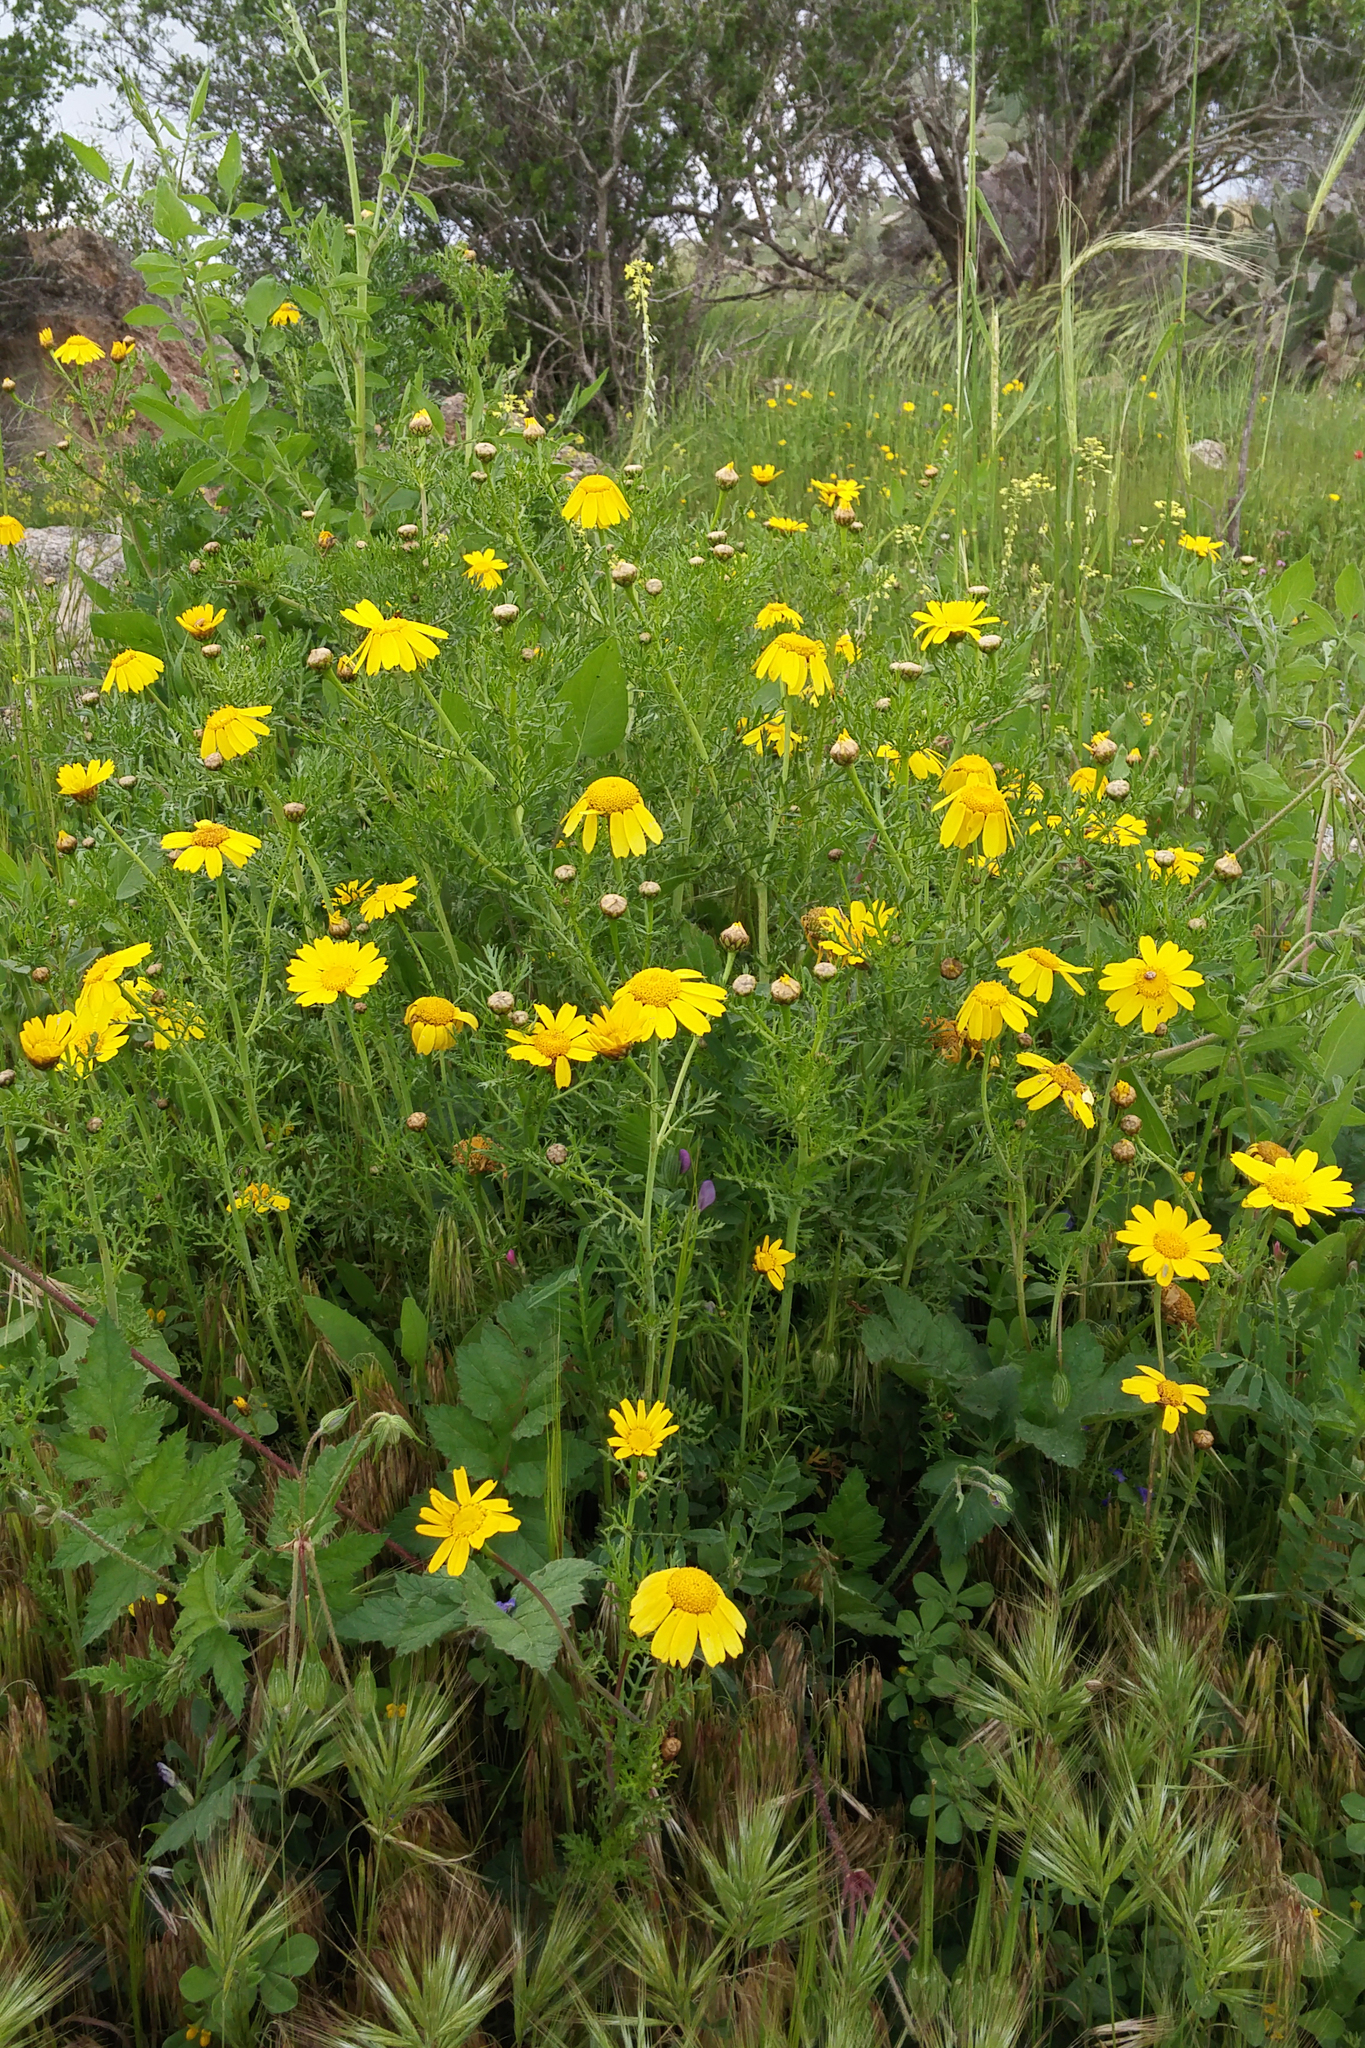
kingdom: Plantae
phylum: Tracheophyta
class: Magnoliopsida
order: Asterales
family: Asteraceae
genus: Glebionis
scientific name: Glebionis coronaria
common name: Crowndaisy
